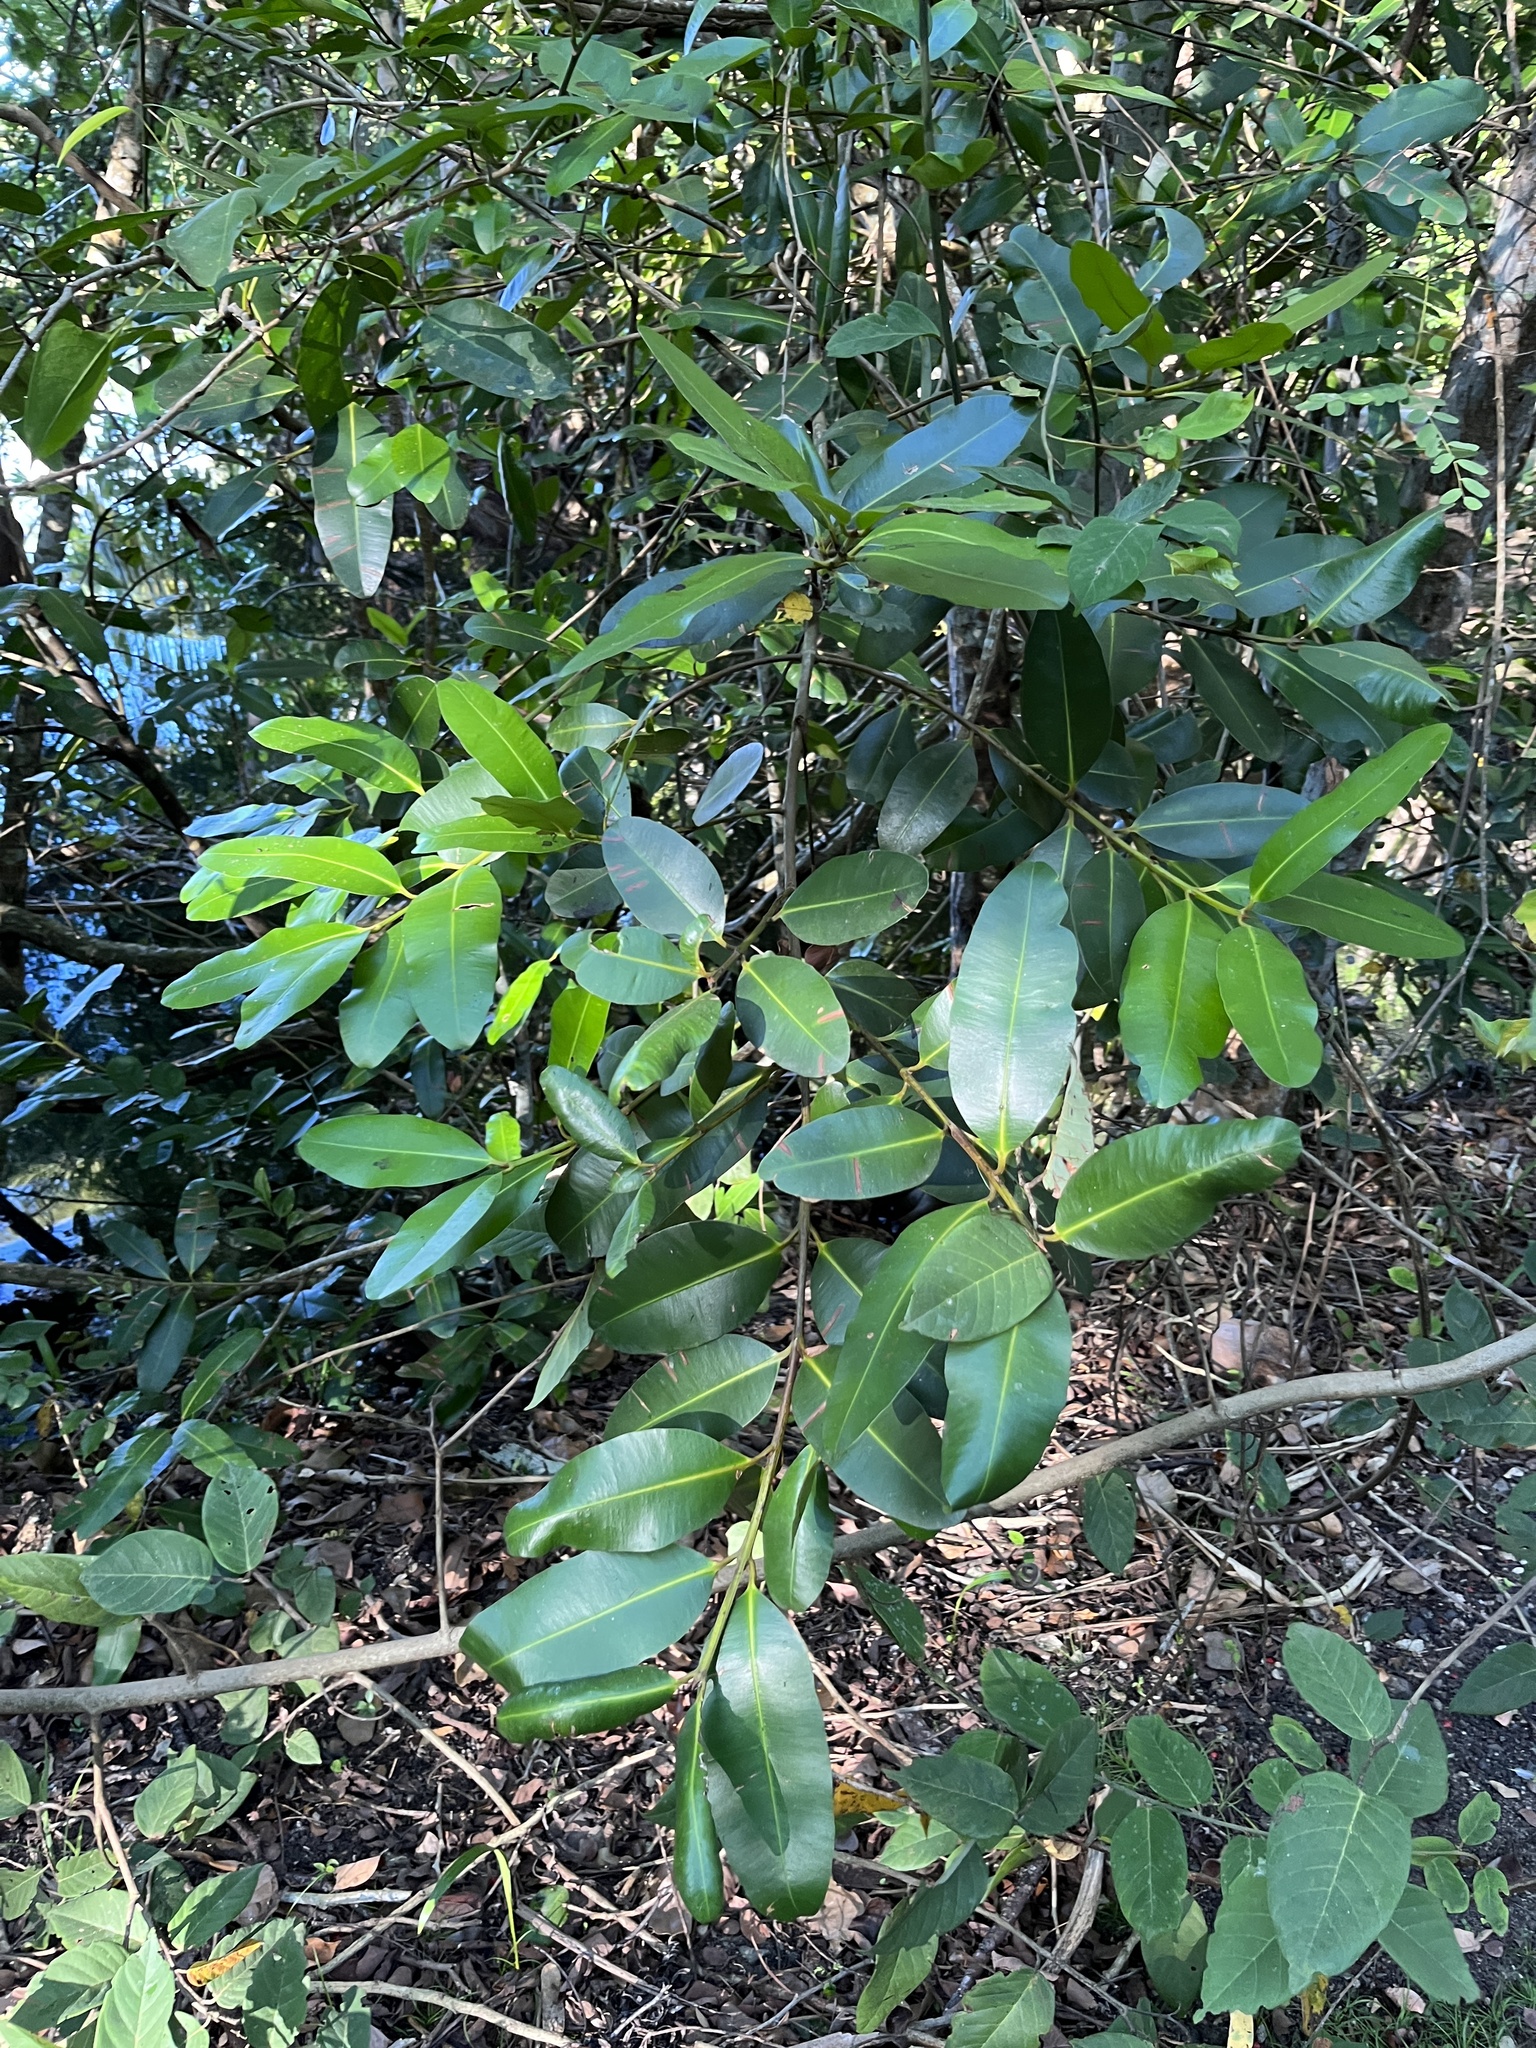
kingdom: Plantae
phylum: Tracheophyta
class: Magnoliopsida
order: Malpighiales
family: Calophyllaceae
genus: Calophyllum
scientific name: Calophyllum brasiliense
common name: Santa maria
